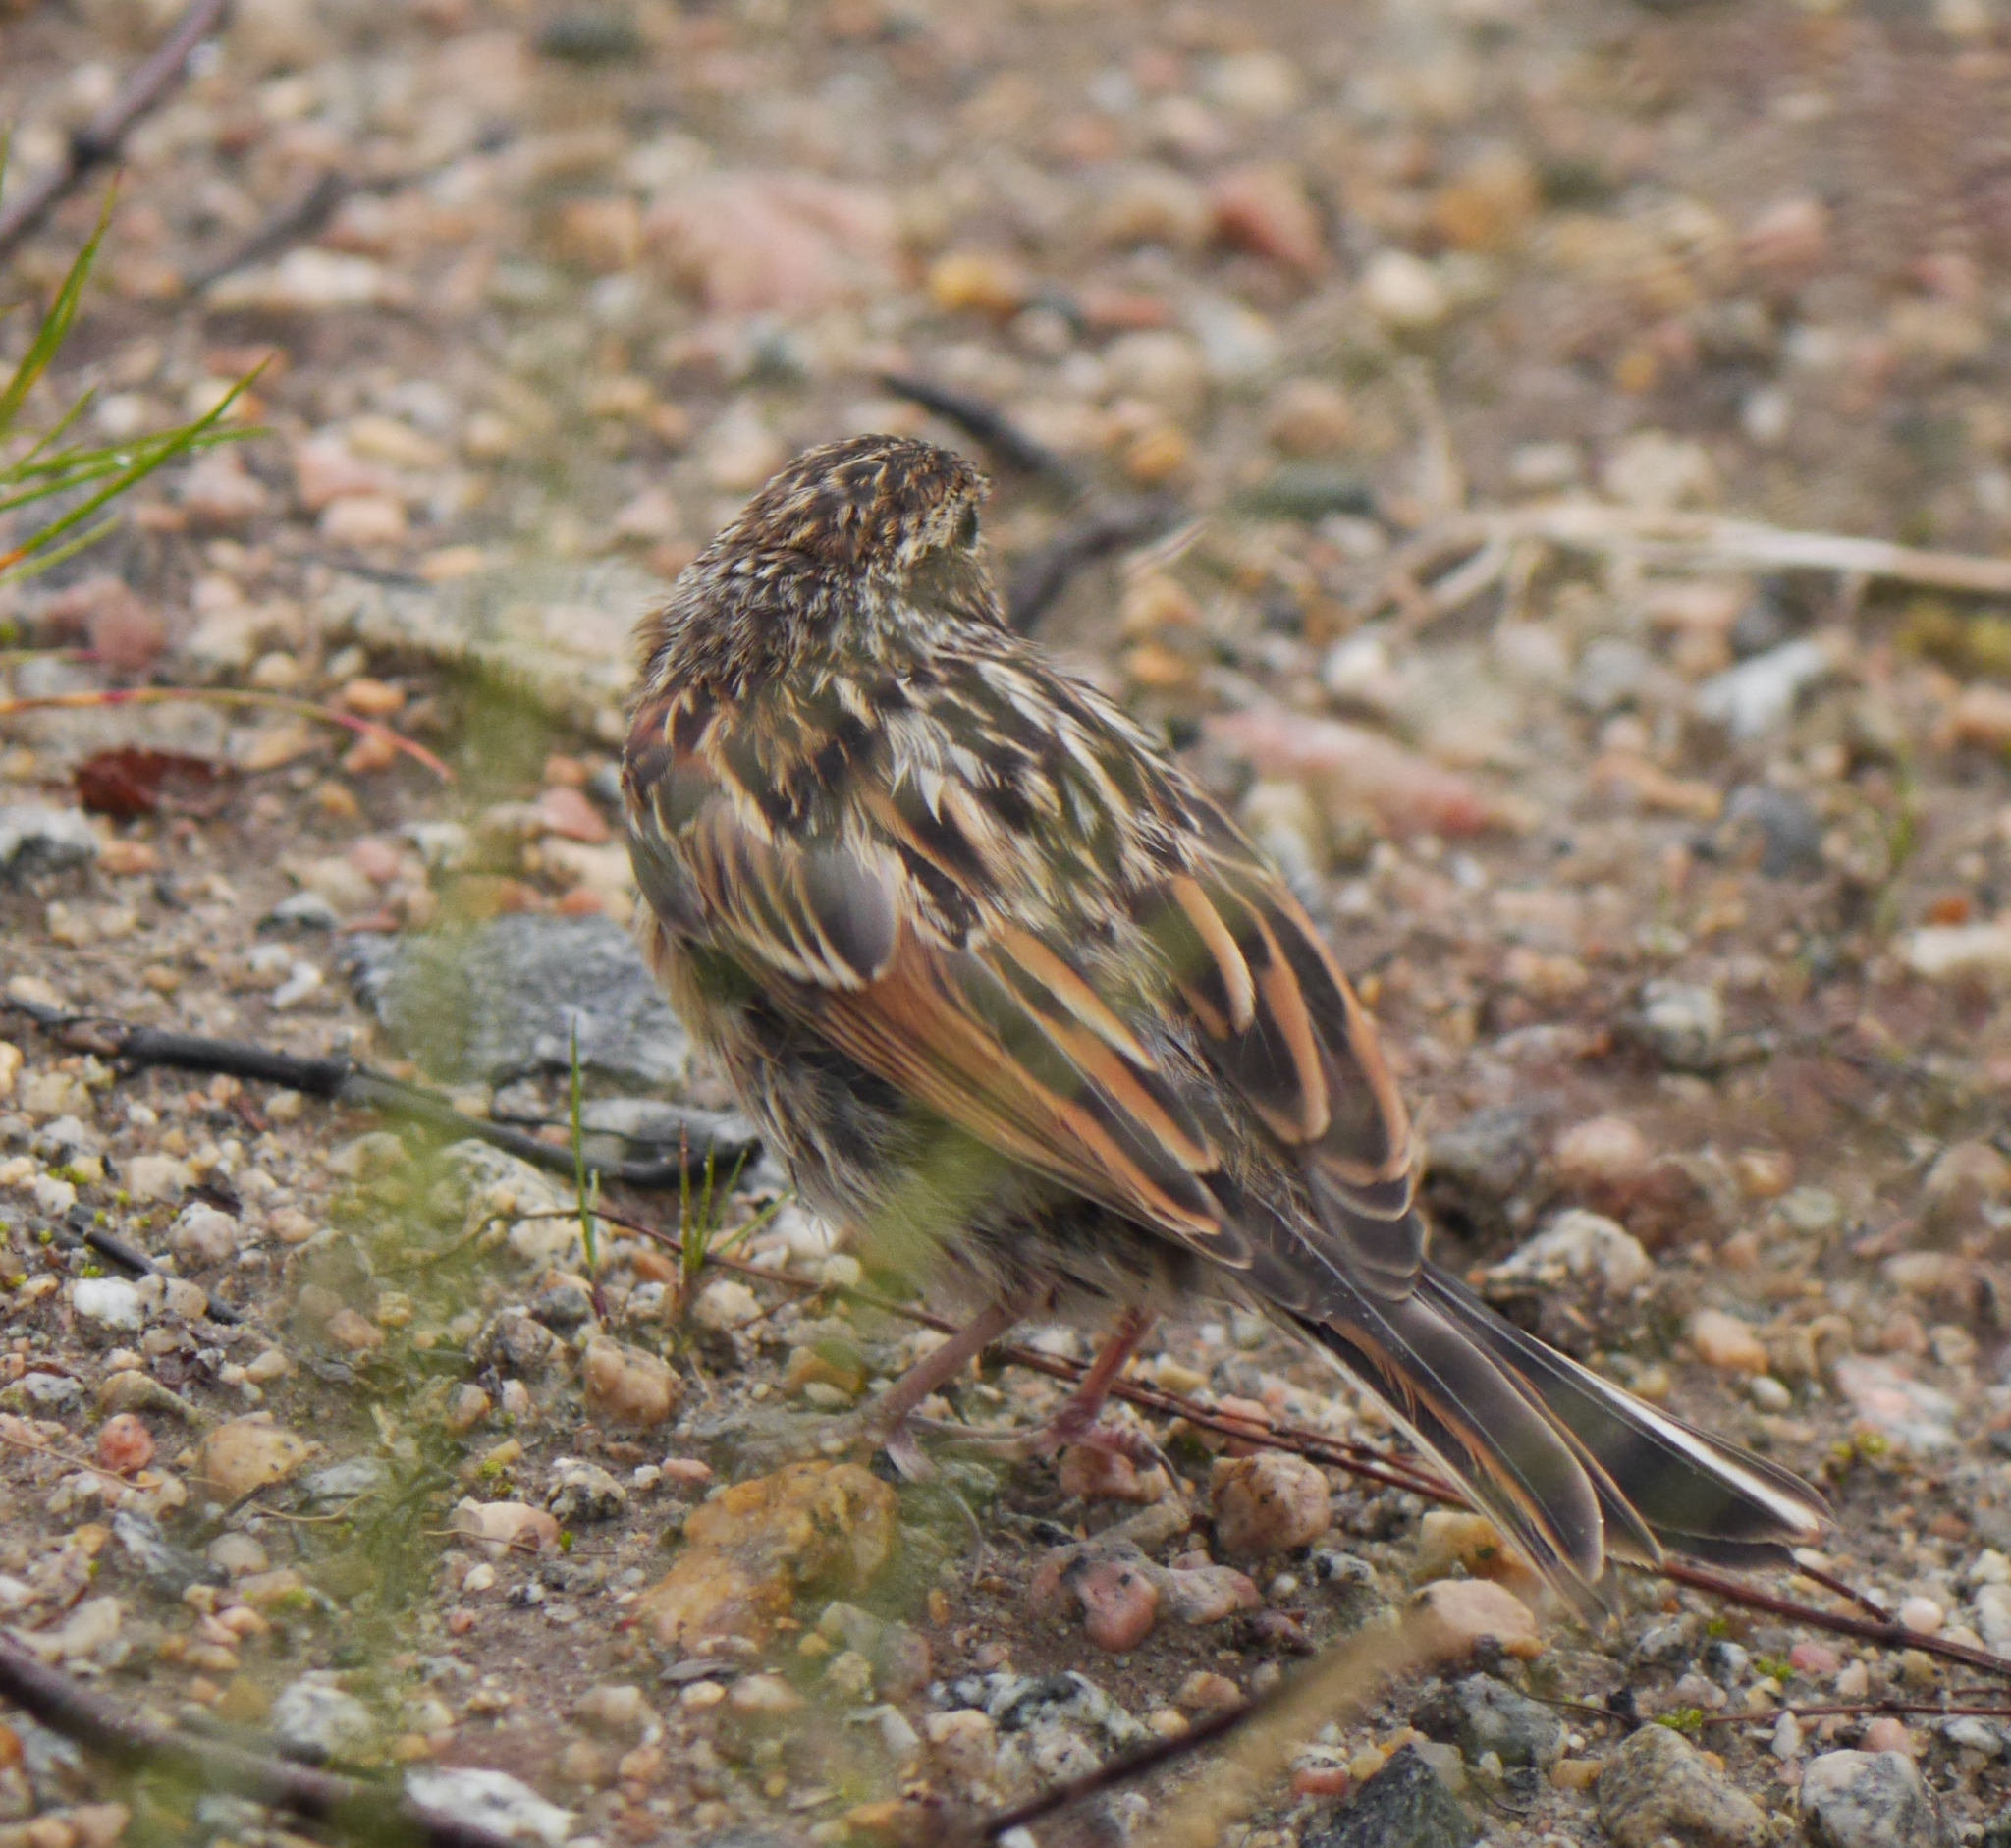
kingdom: Animalia
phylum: Chordata
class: Aves
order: Passeriformes
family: Emberizidae
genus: Emberiza
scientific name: Emberiza schoeniclus
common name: Reed bunting
